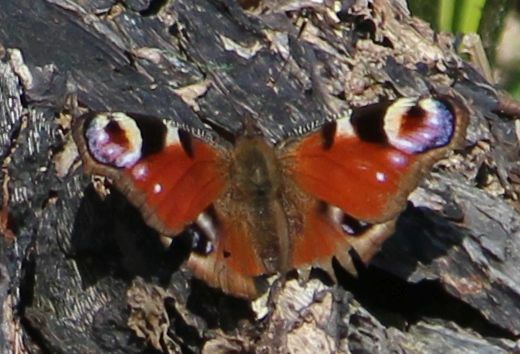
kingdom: Animalia
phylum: Arthropoda
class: Insecta
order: Lepidoptera
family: Nymphalidae
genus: Aglais
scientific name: Aglais io
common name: Peacock
